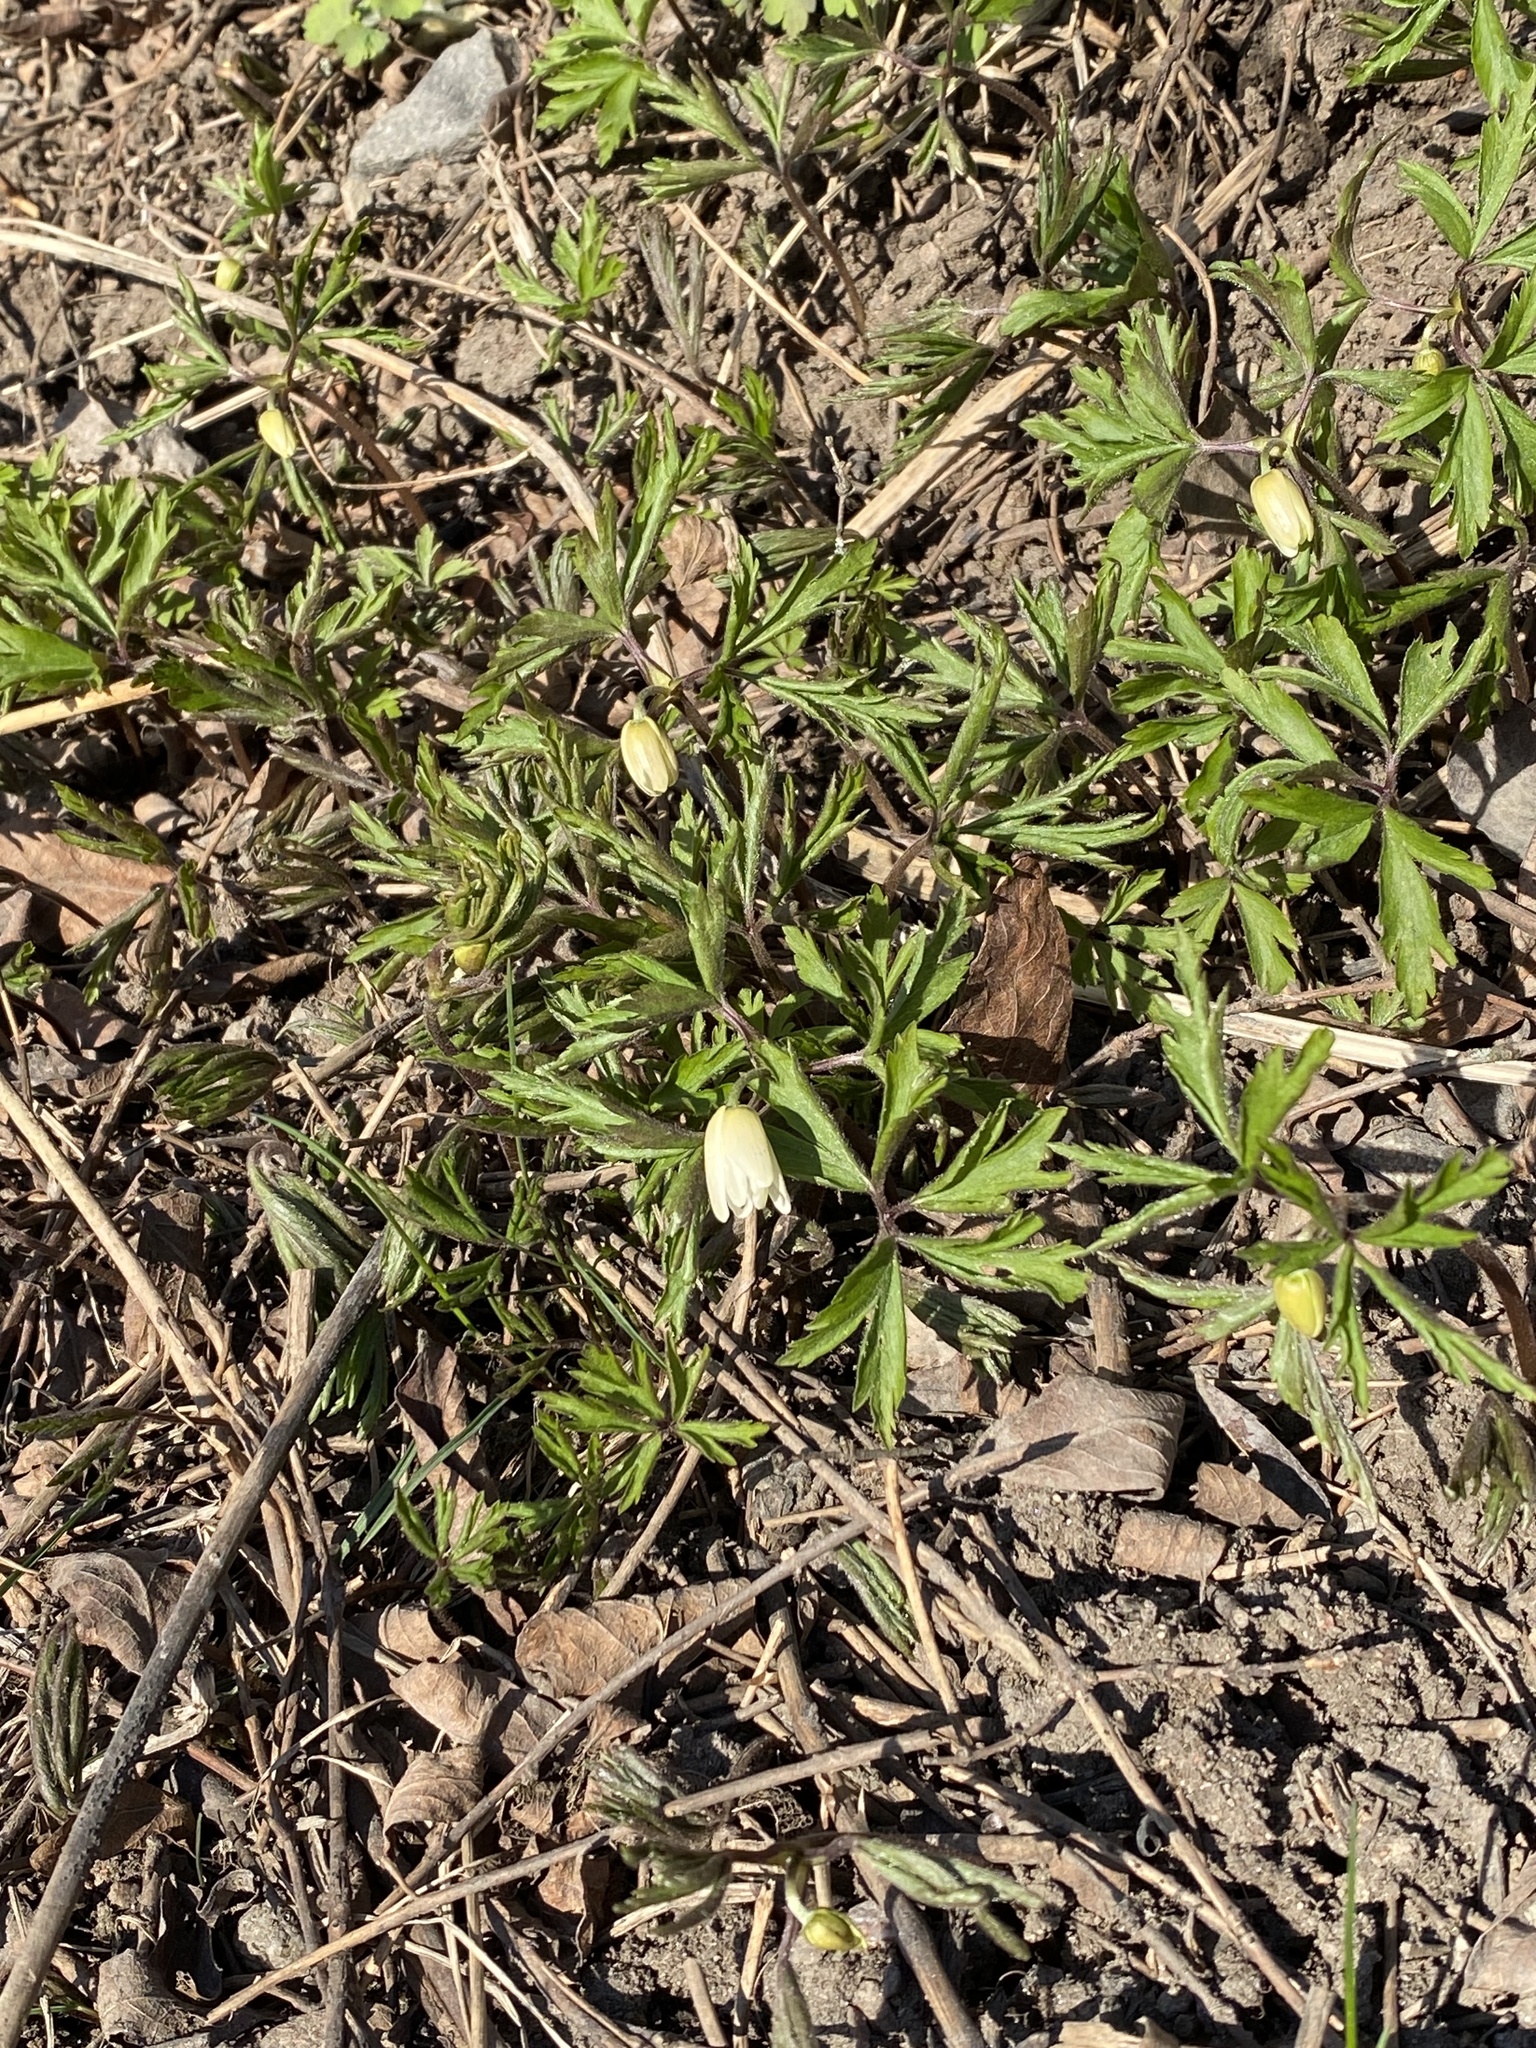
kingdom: Plantae
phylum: Tracheophyta
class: Magnoliopsida
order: Ranunculales
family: Ranunculaceae
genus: Anemone
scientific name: Anemone nemorosa
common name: Wood anemone
